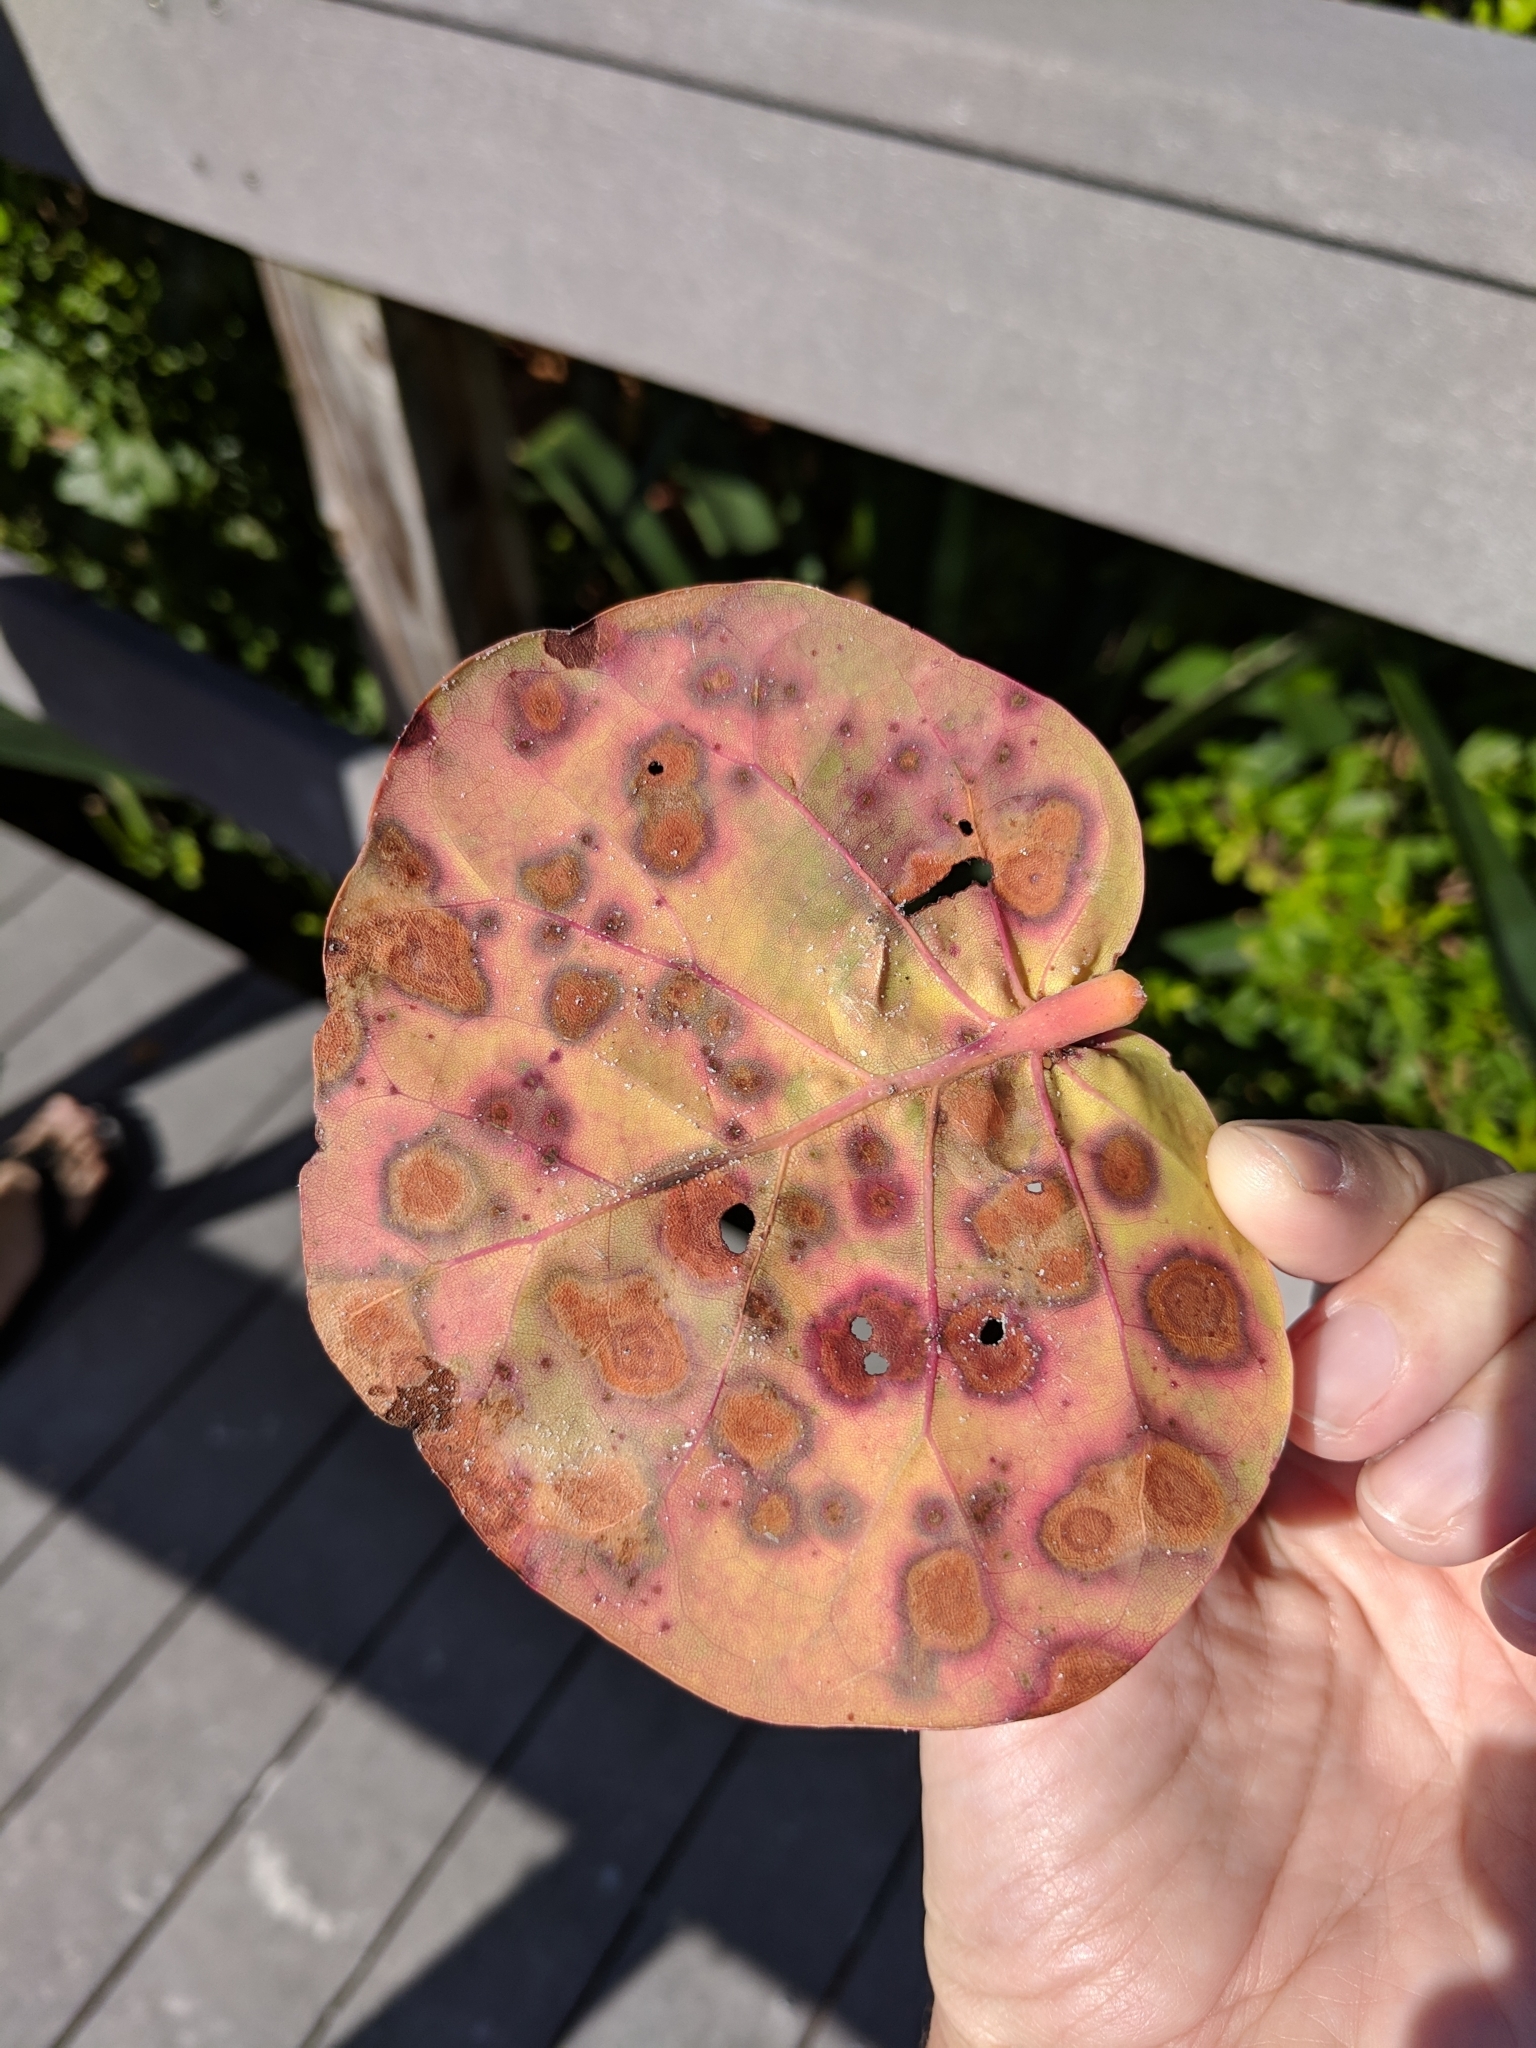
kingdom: Plantae
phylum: Tracheophyta
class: Magnoliopsida
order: Caryophyllales
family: Polygonaceae
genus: Coccoloba
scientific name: Coccoloba uvifera
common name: Seagrape
